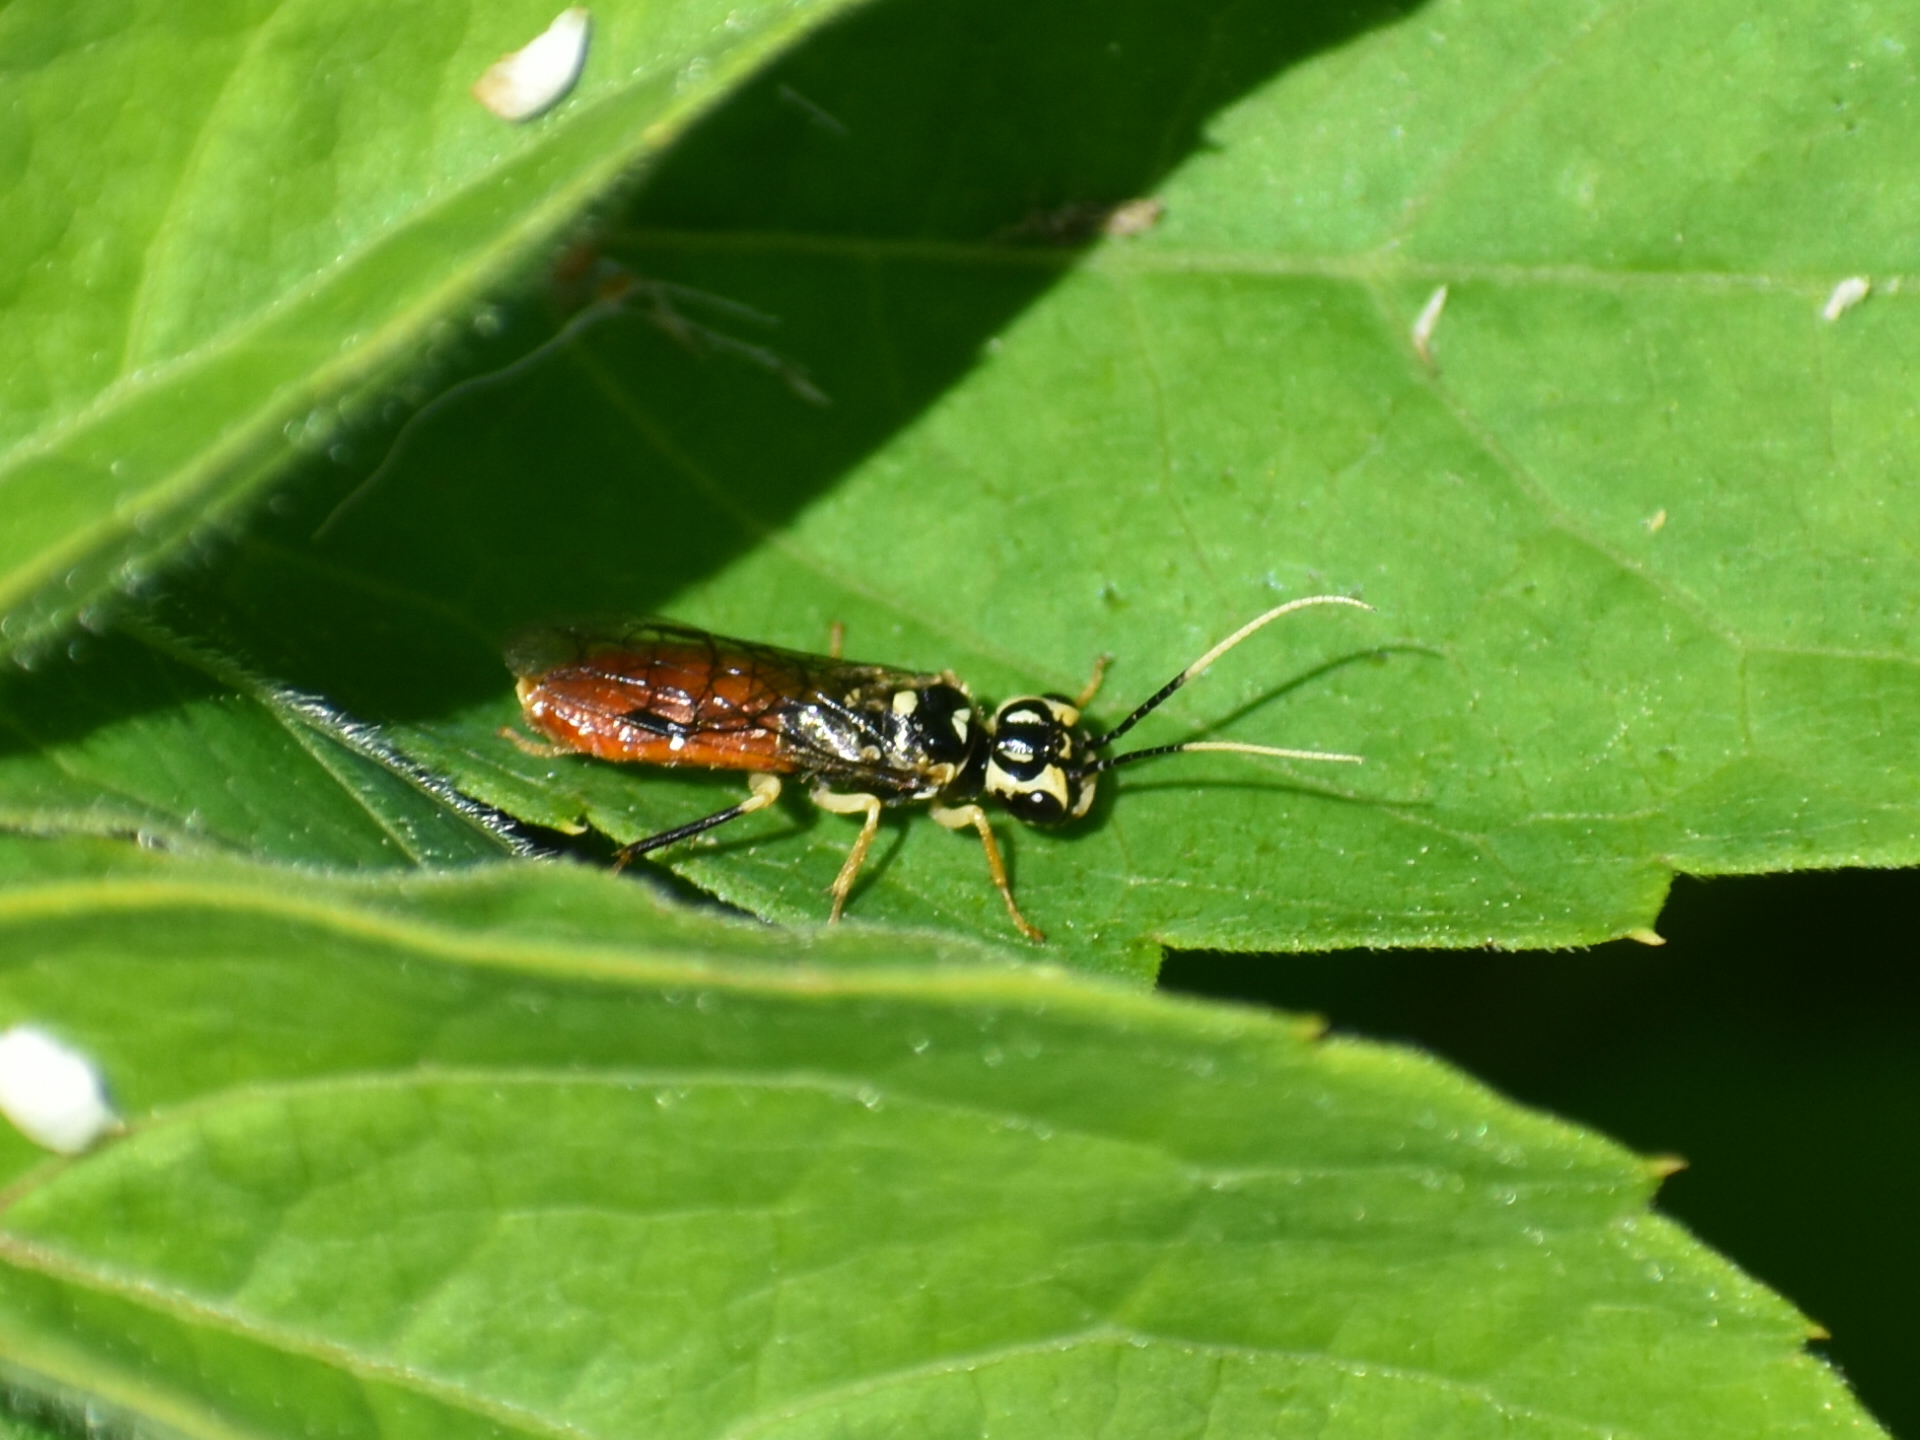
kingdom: Animalia
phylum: Arthropoda
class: Insecta
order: Hymenoptera
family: Pamphiliidae
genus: Onycholyda
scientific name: Onycholyda
